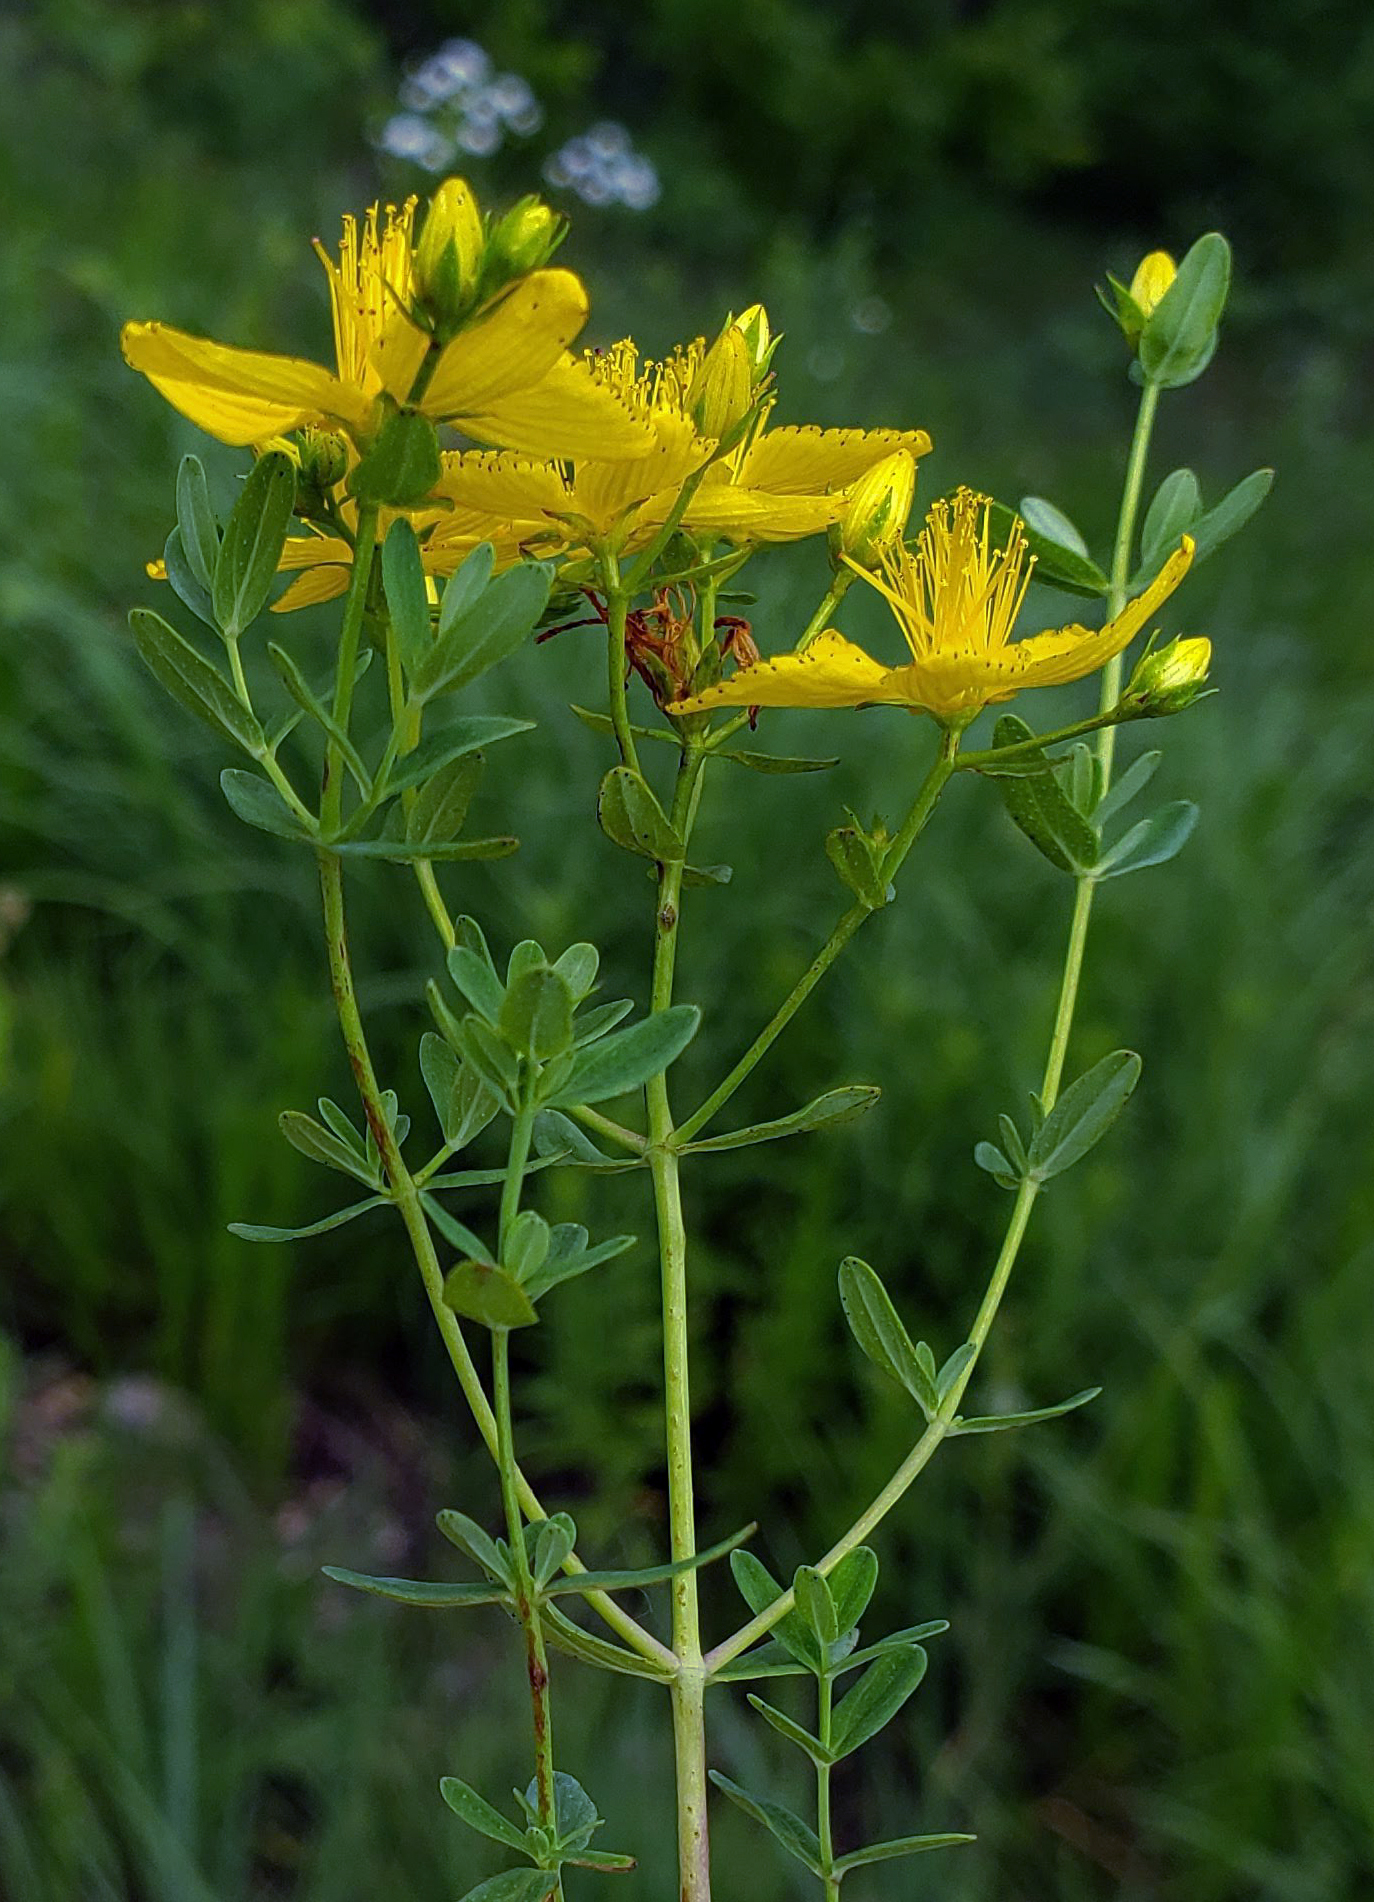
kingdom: Plantae
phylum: Tracheophyta
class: Magnoliopsida
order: Malpighiales
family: Hypericaceae
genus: Hypericum
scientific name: Hypericum perforatum
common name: Common st. johnswort
